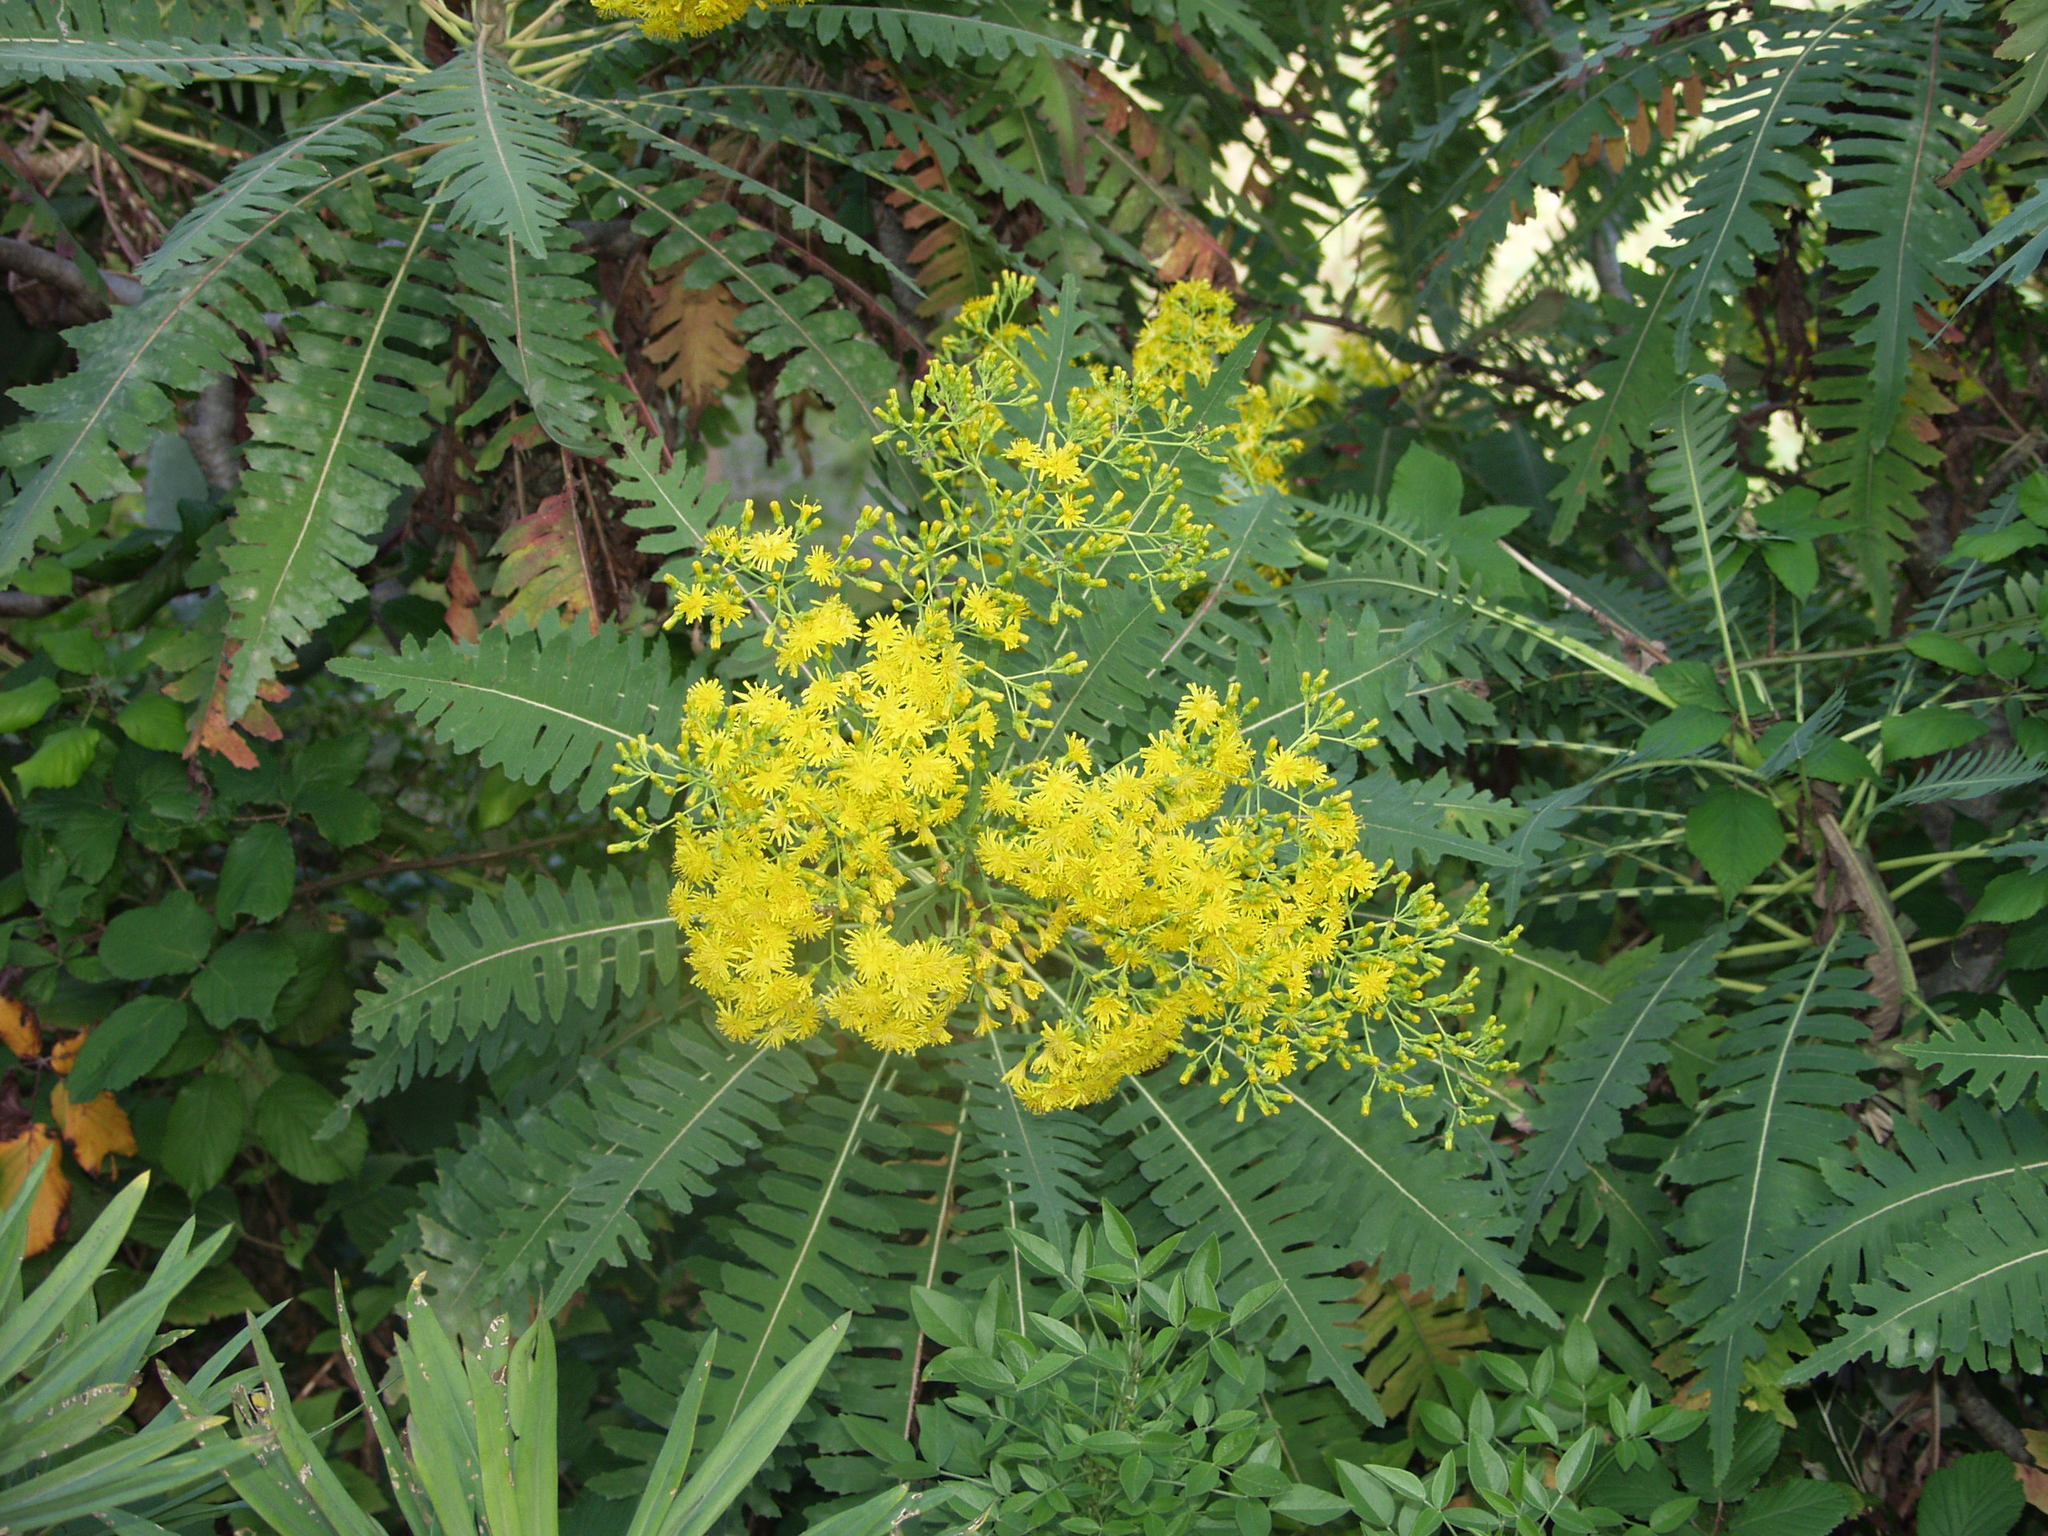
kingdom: Plantae
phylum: Tracheophyta
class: Magnoliopsida
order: Asterales
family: Asteraceae
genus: Sonchus
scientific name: Sonchus palmensis
